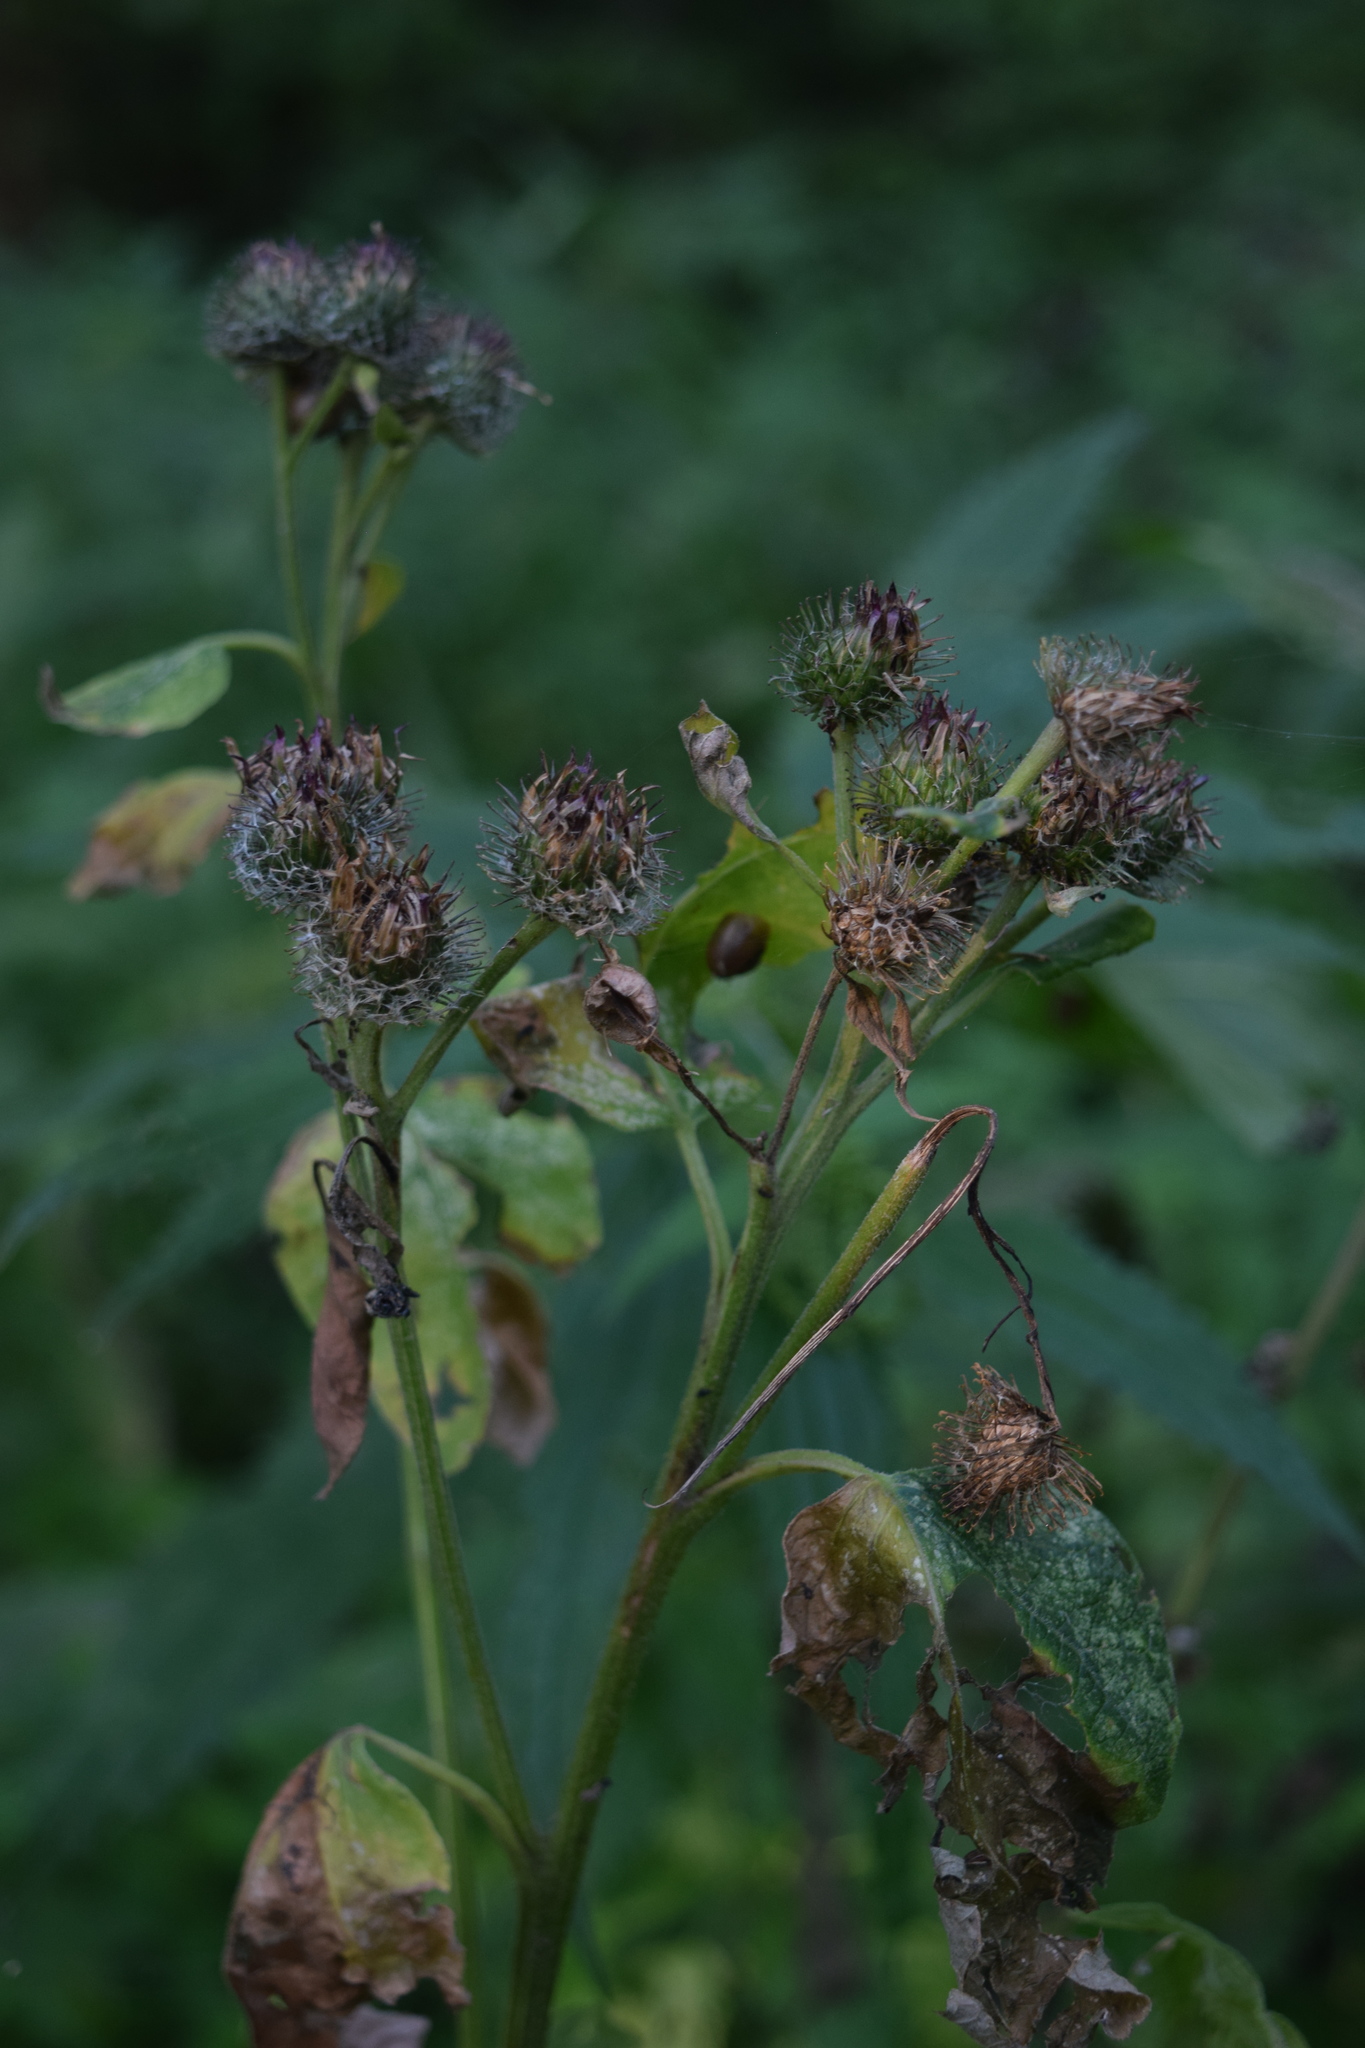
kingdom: Plantae
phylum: Tracheophyta
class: Magnoliopsida
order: Asterales
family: Asteraceae
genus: Arctium
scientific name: Arctium tomentosum
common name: Woolly burdock
